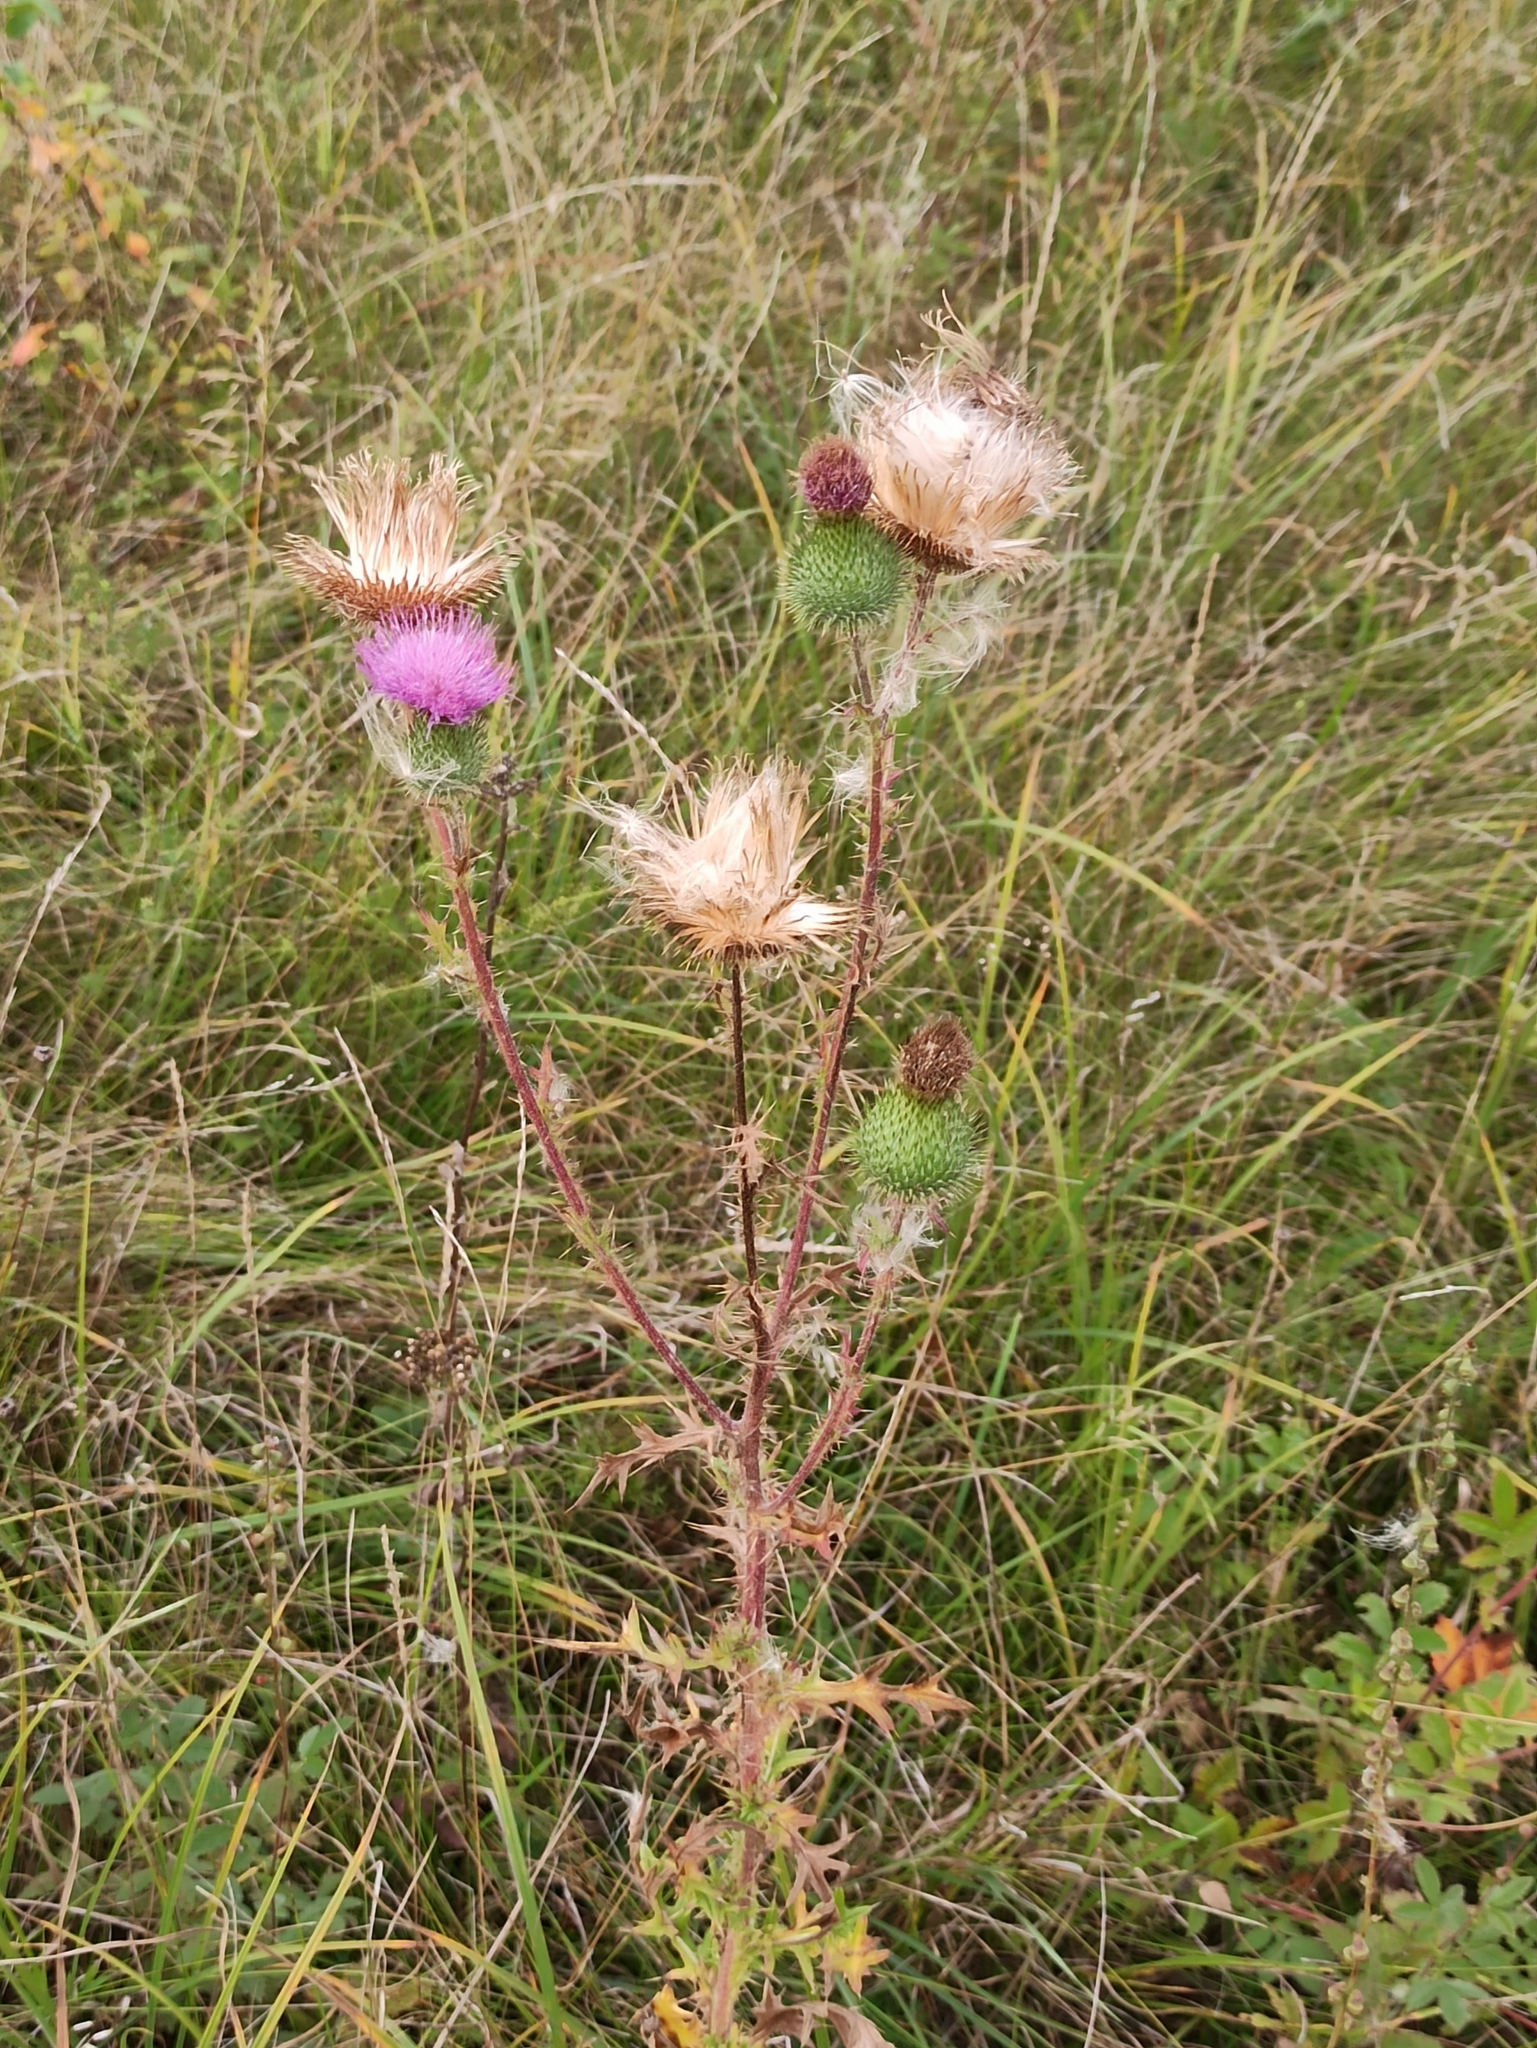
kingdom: Plantae
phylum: Tracheophyta
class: Magnoliopsida
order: Asterales
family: Asteraceae
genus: Cirsium
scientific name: Cirsium vulgare
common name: Bull thistle
